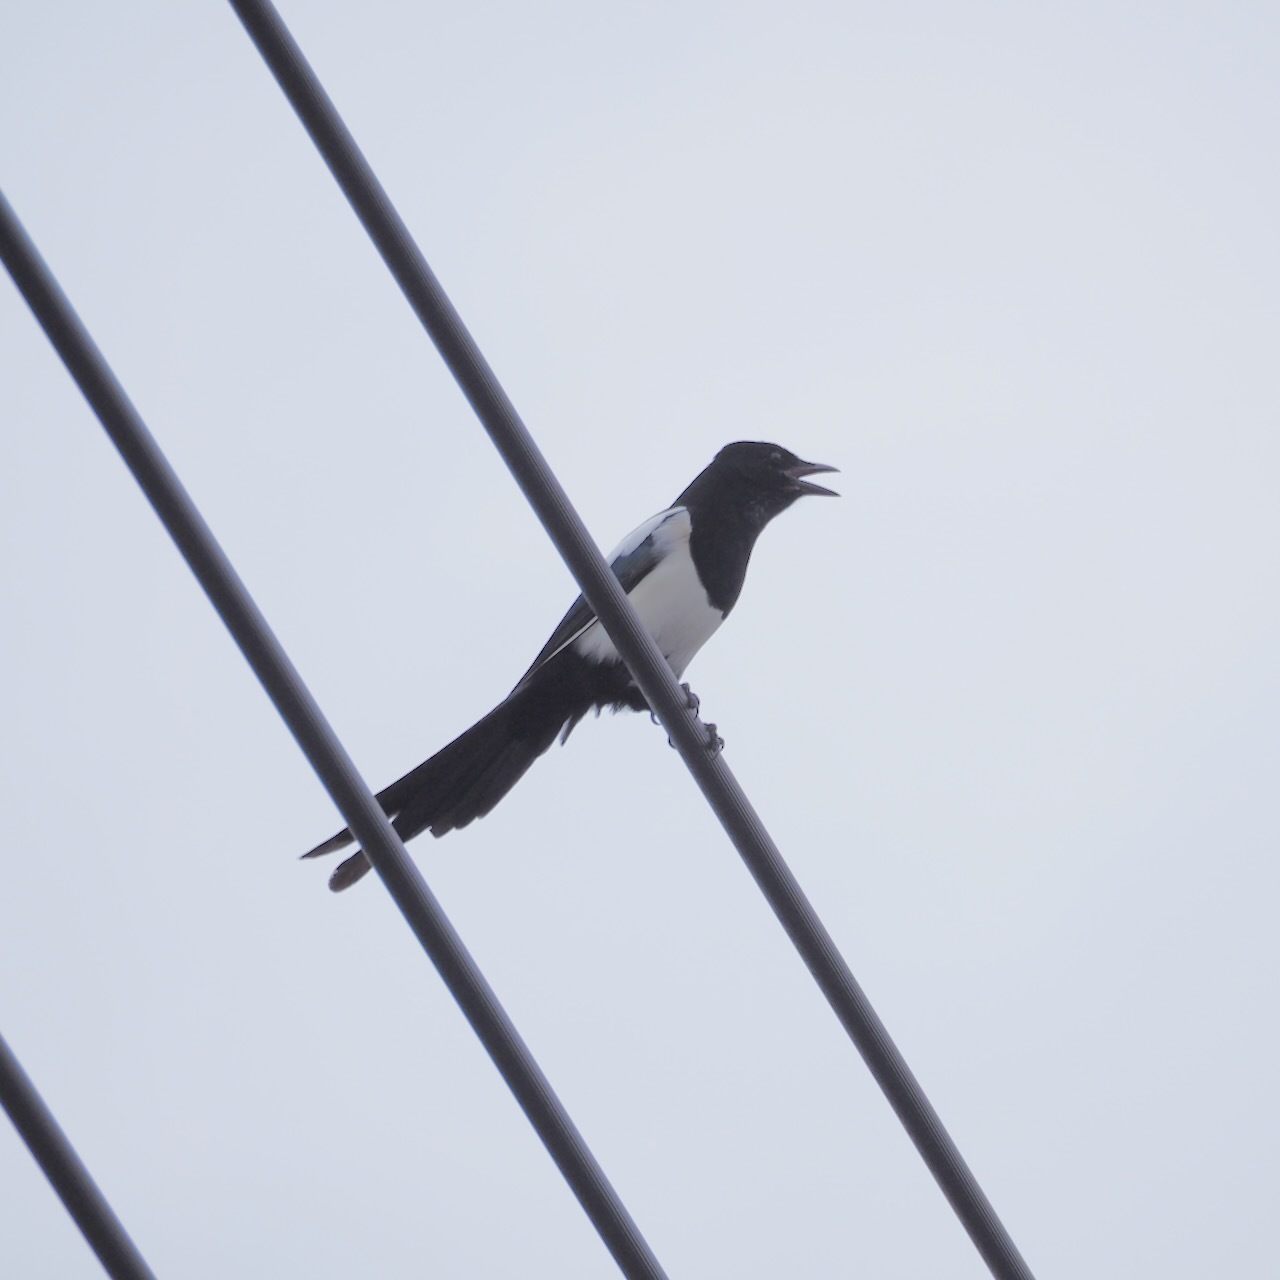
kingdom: Animalia
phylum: Chordata
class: Aves
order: Passeriformes
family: Corvidae
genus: Pica
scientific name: Pica serica
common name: Oriental magpie
